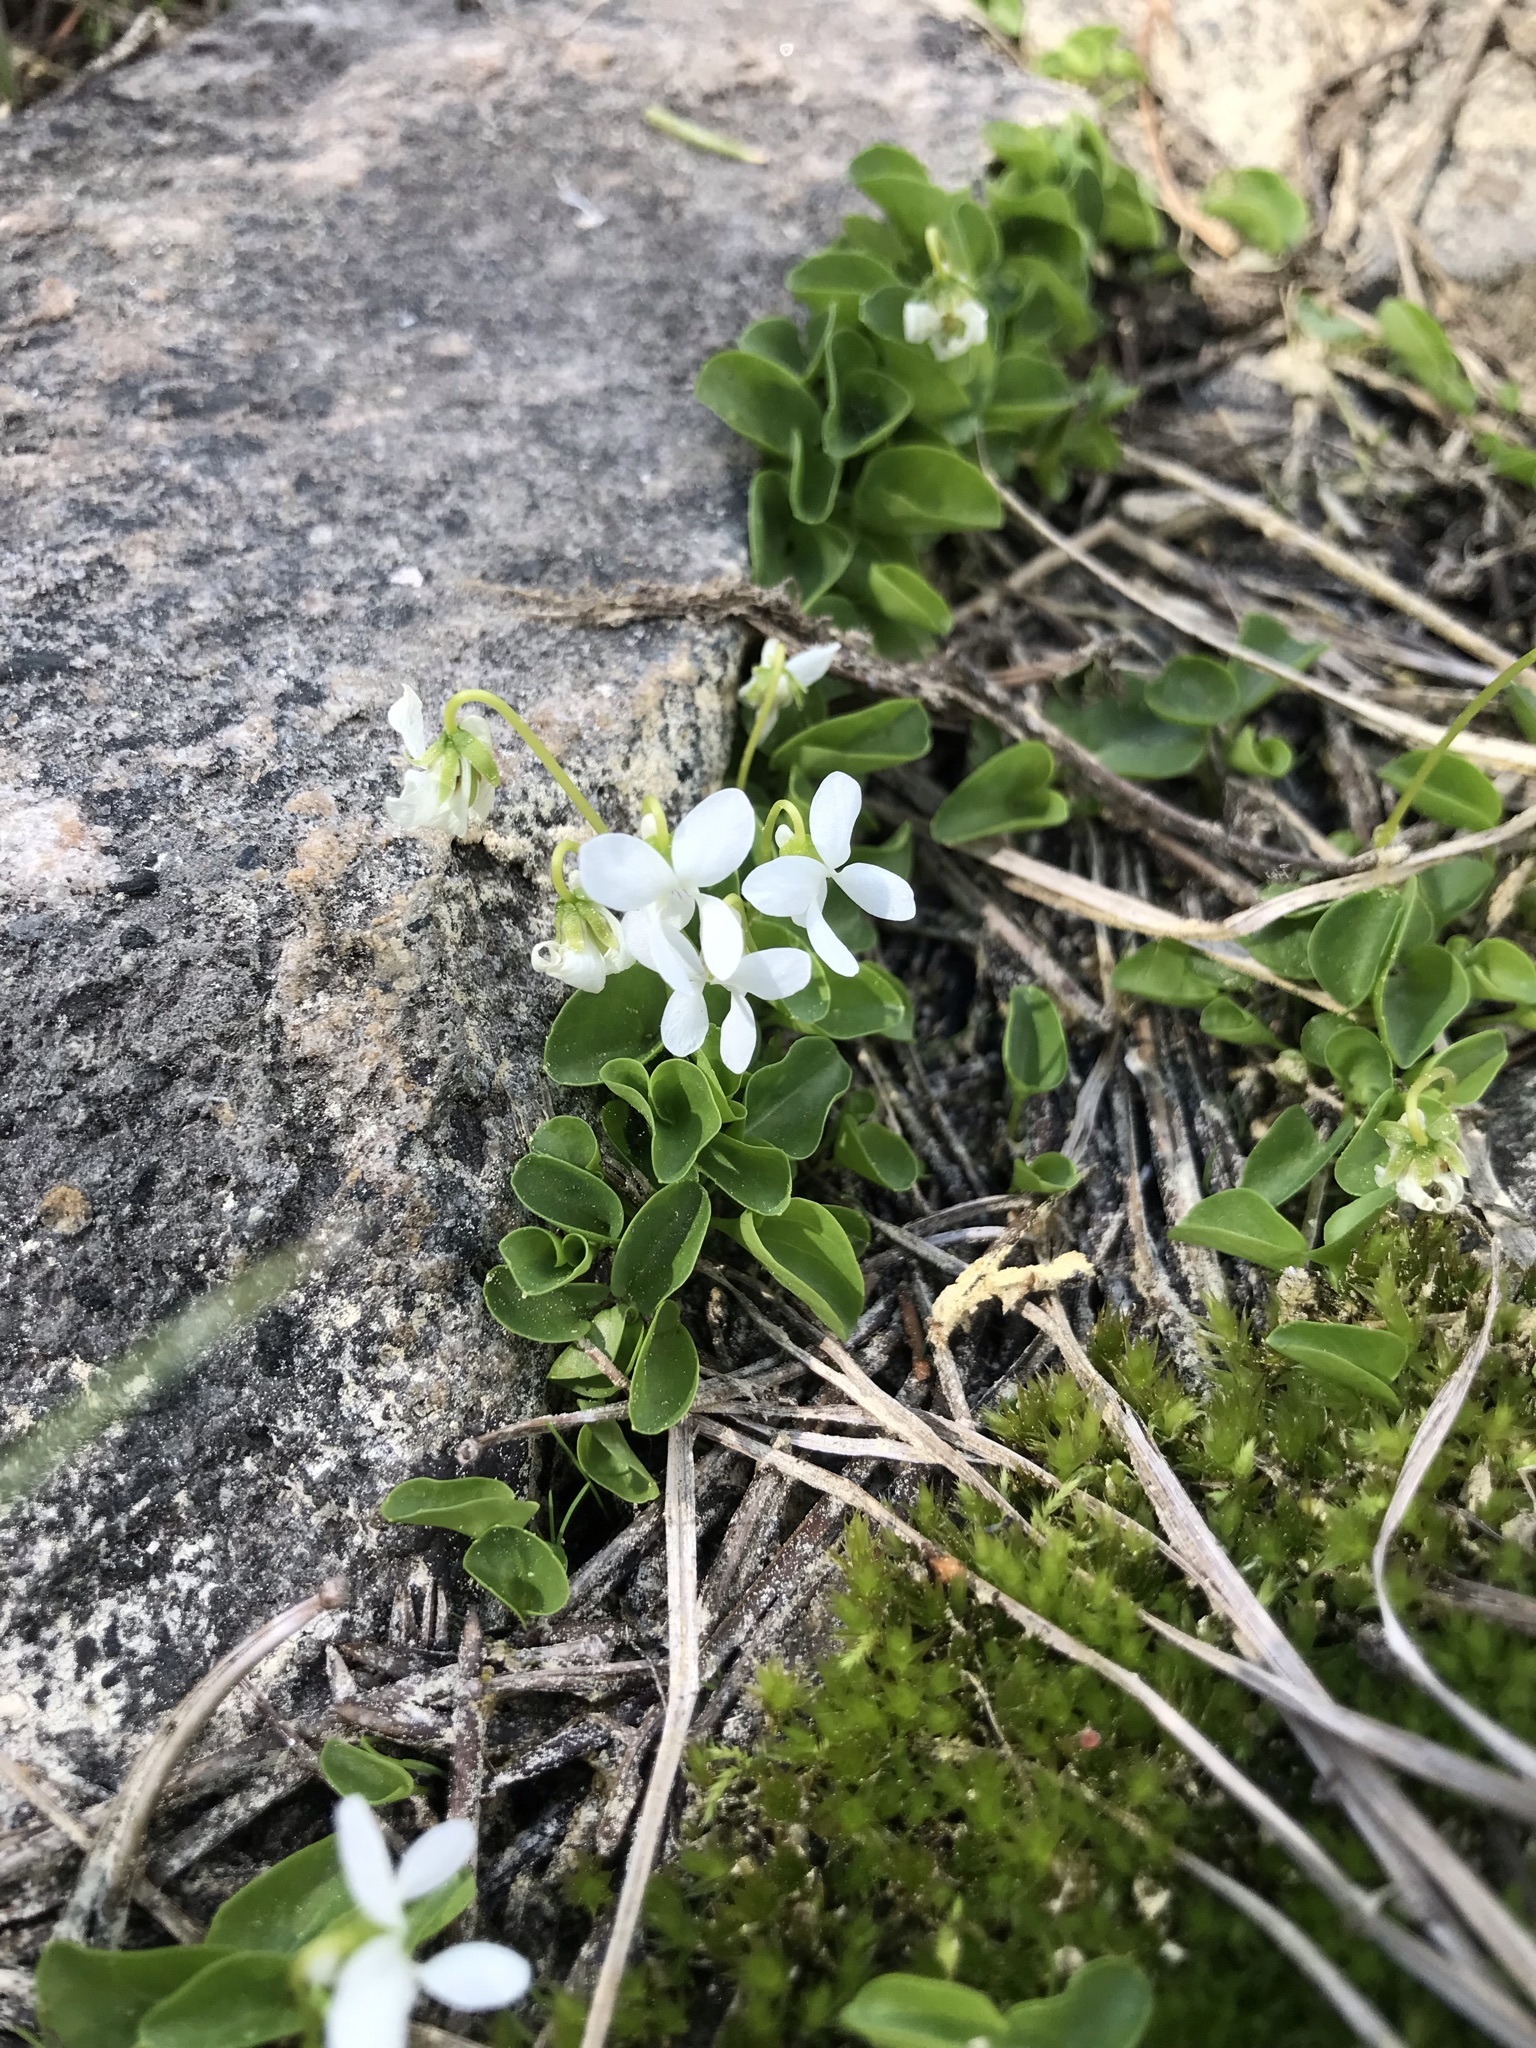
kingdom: Plantae
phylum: Tracheophyta
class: Magnoliopsida
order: Malpighiales
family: Violaceae
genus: Viola
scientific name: Viola macloskeyi
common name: Macloskey's violet
